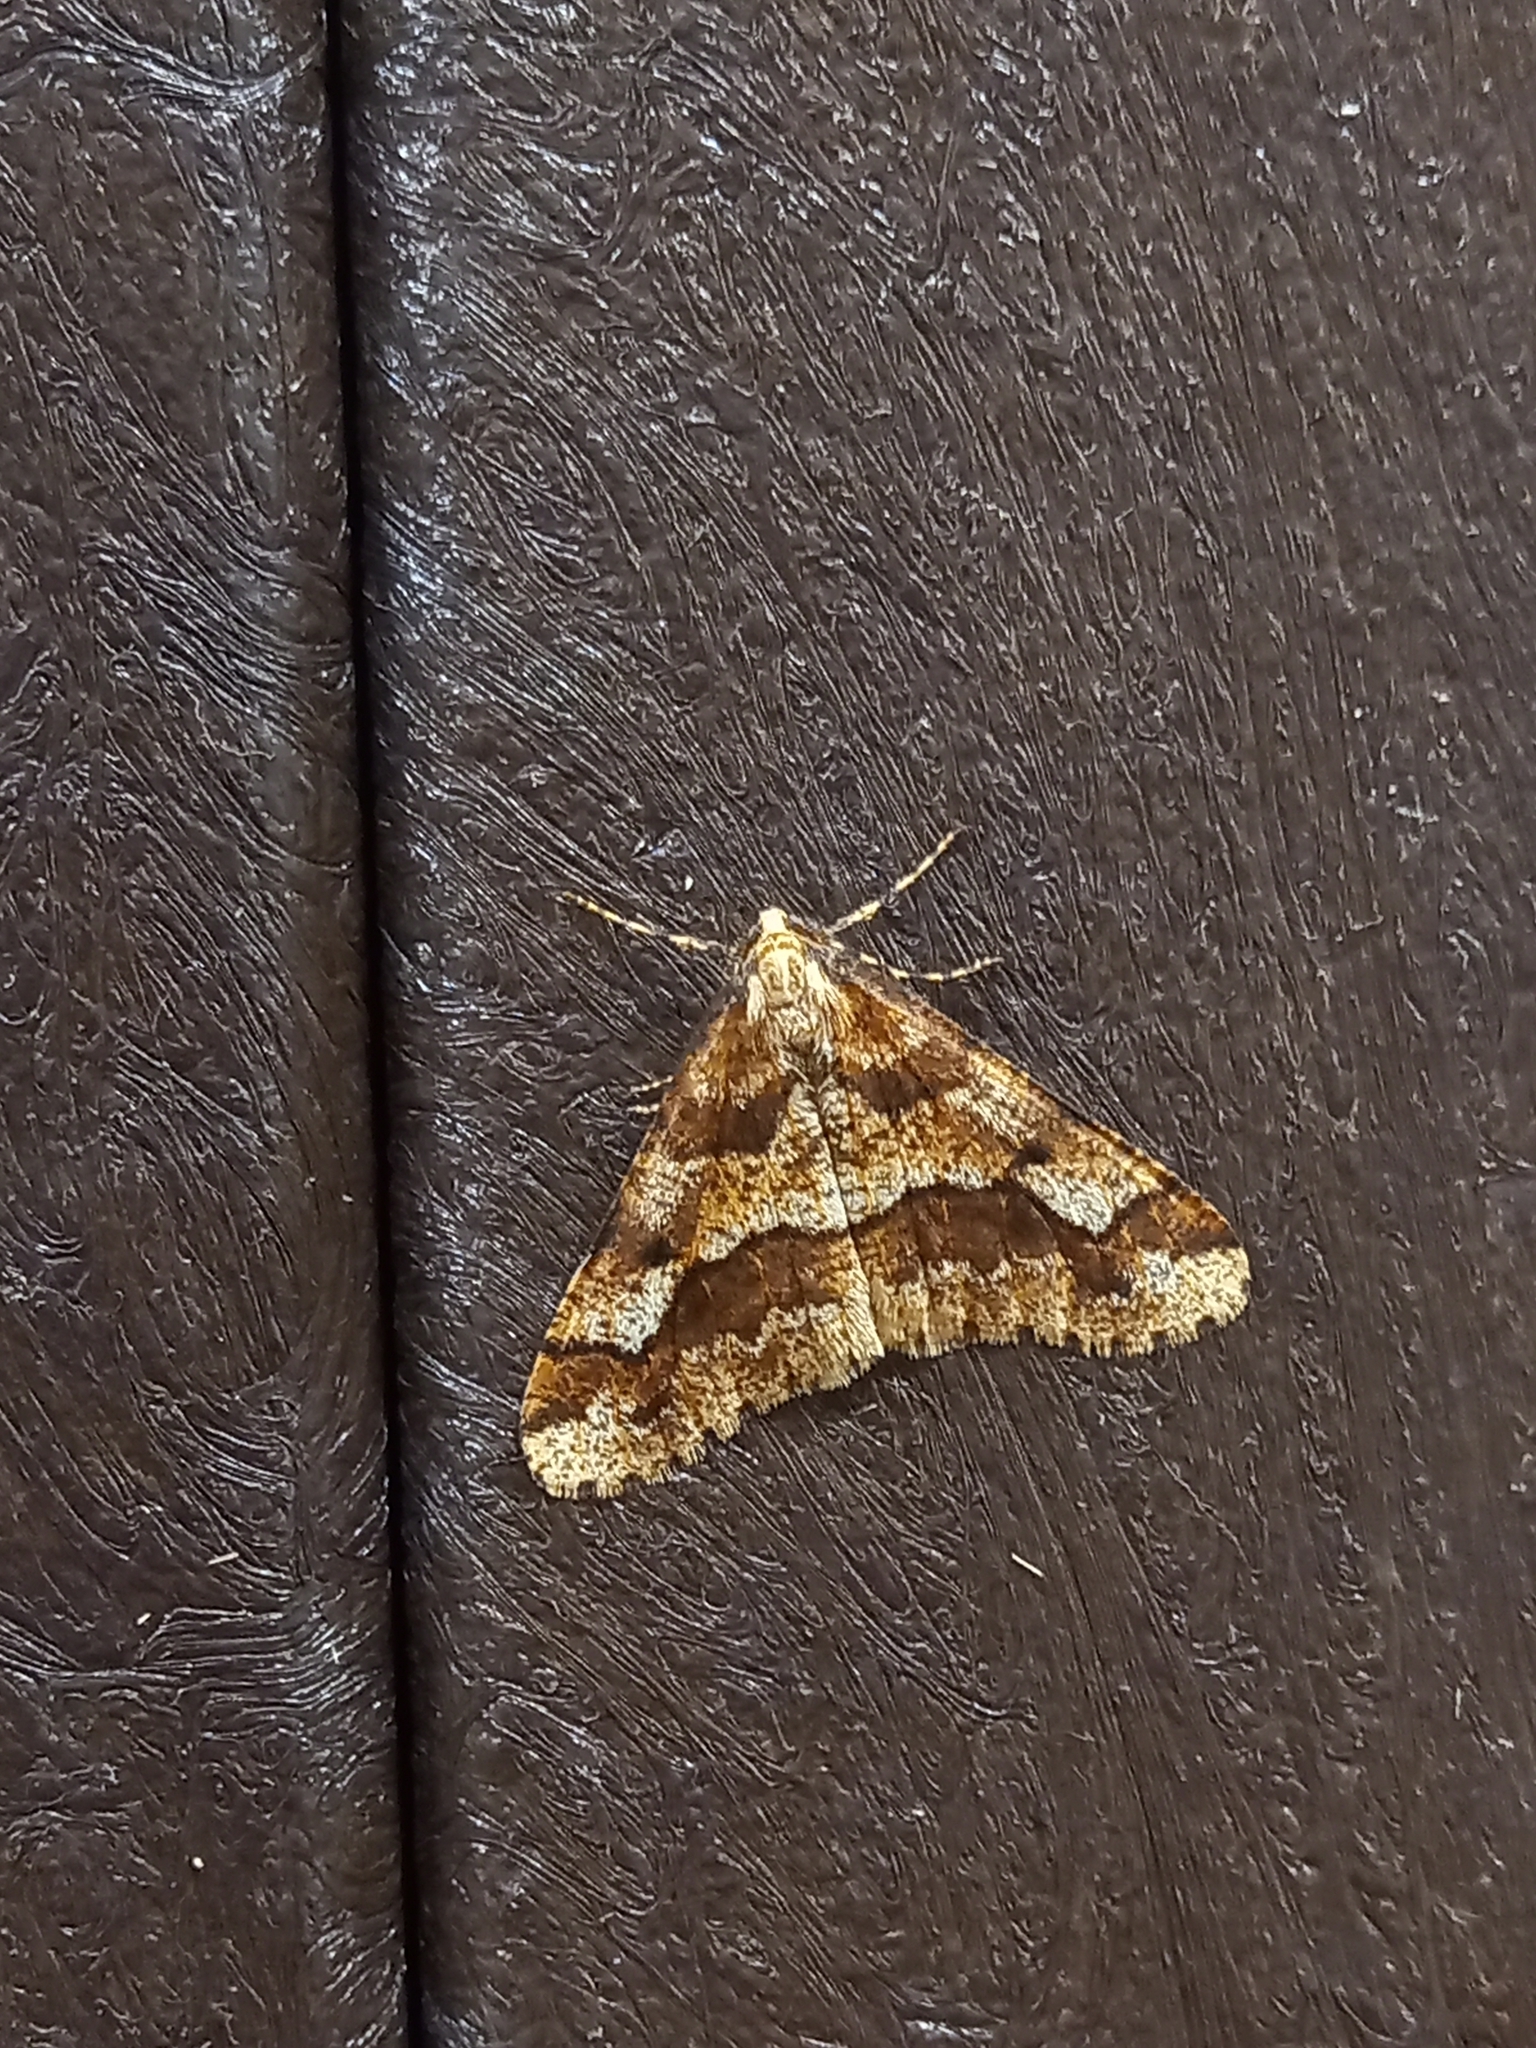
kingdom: Animalia
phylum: Arthropoda
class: Insecta
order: Lepidoptera
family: Geometridae
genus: Erannis
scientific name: Erannis defoliaria
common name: Mottled umber
